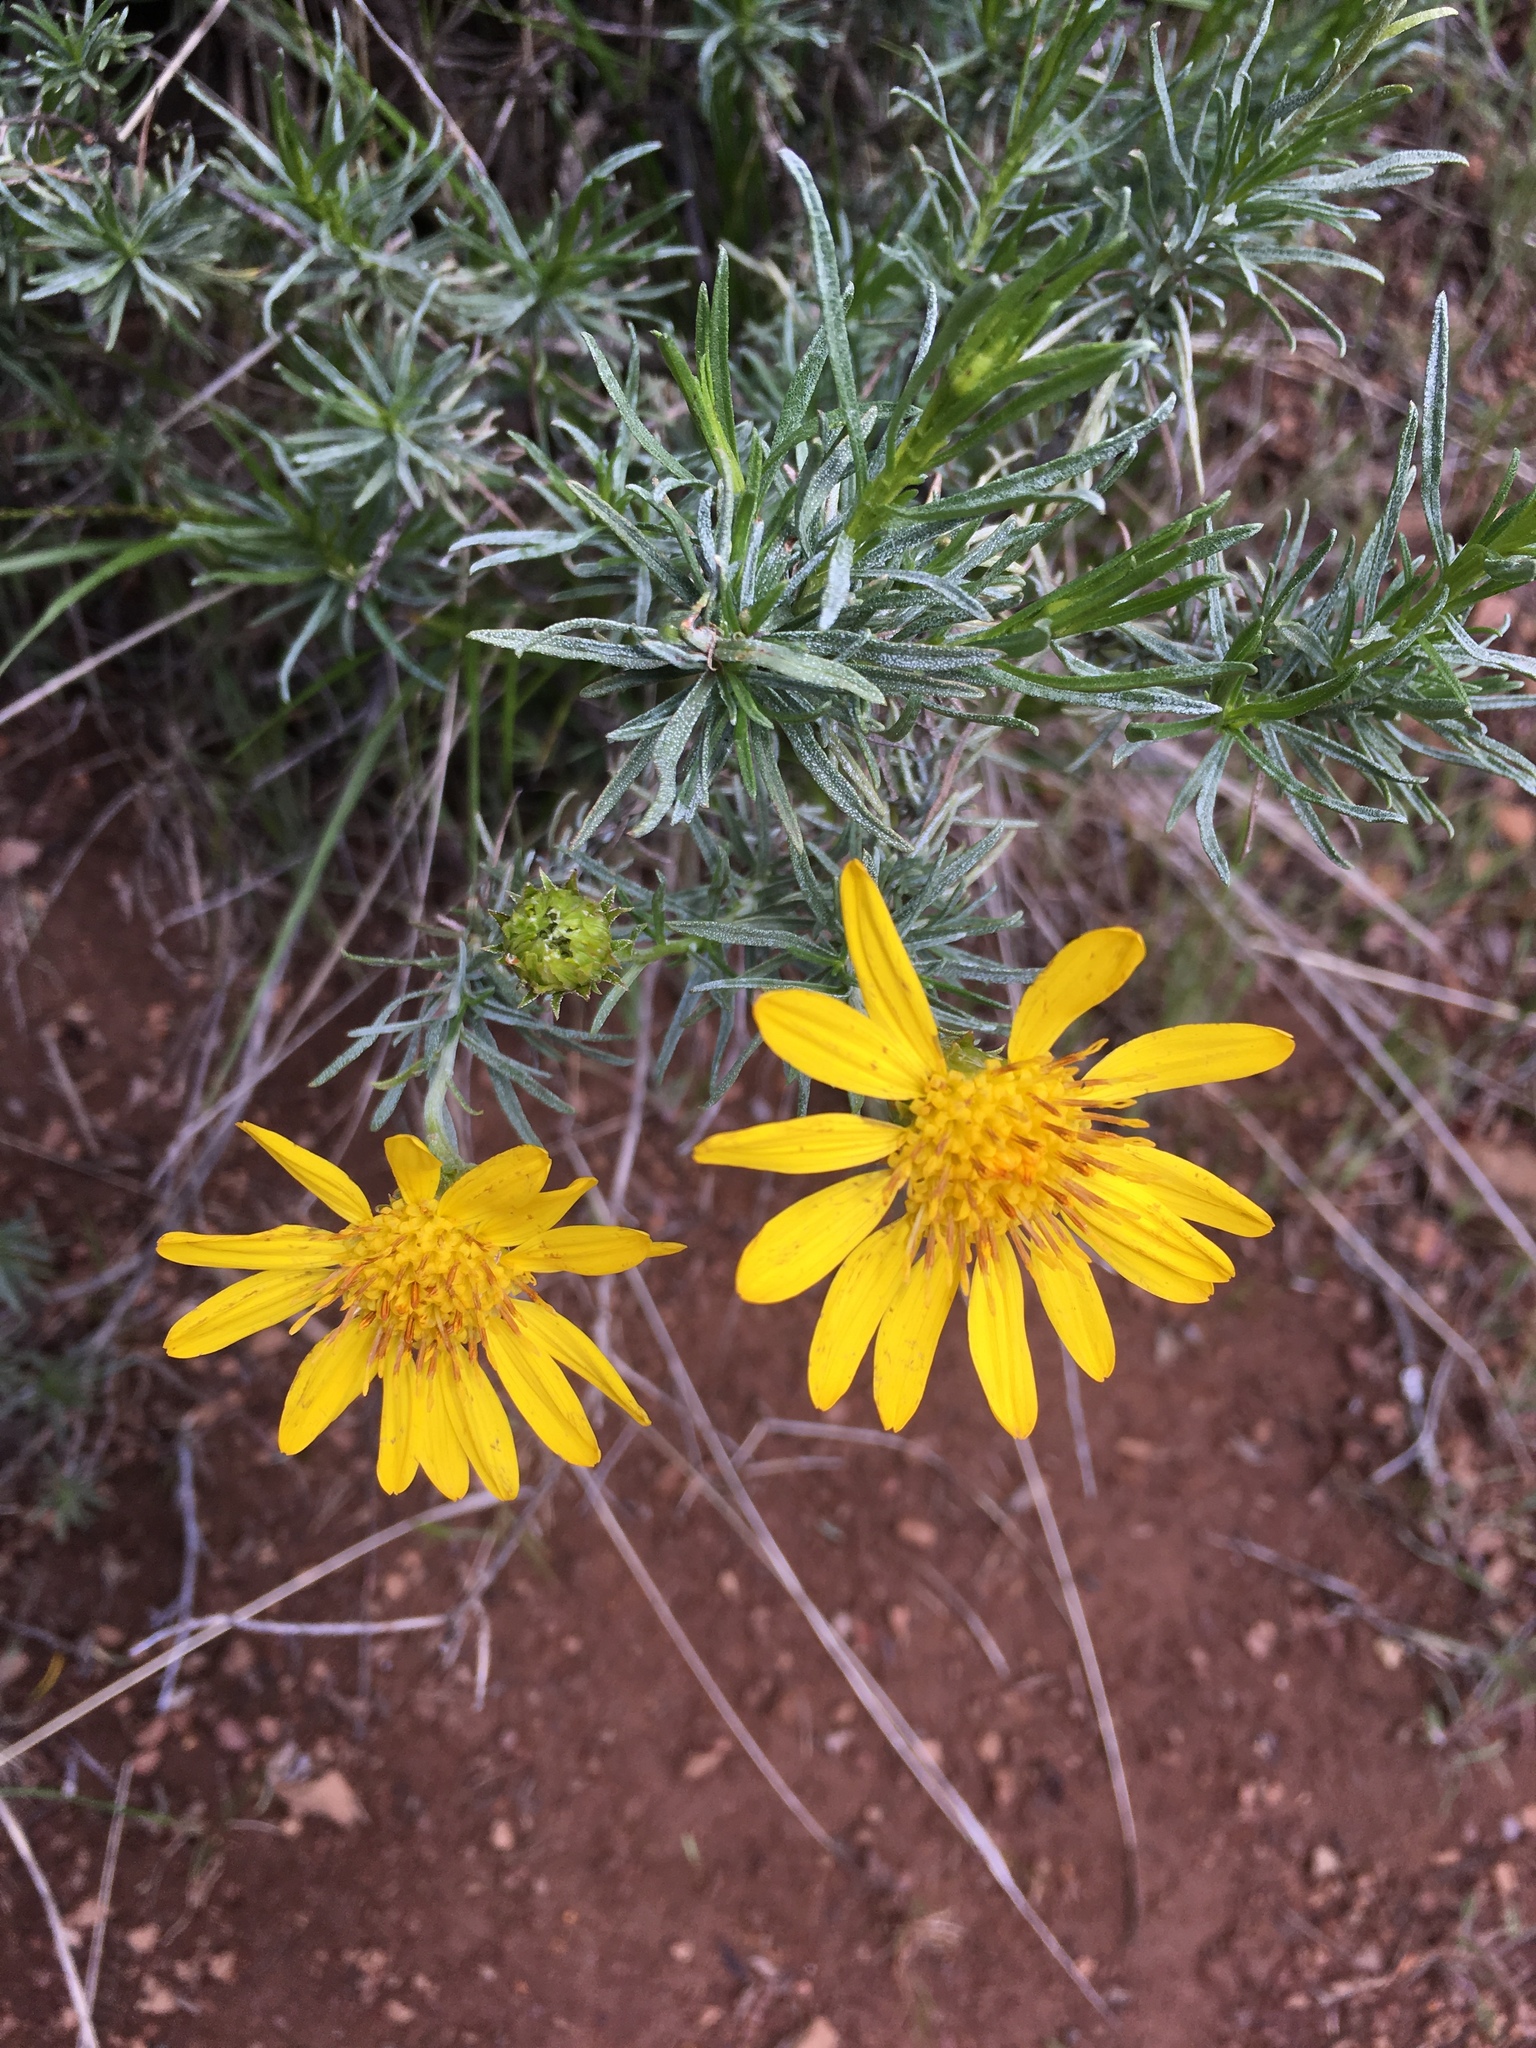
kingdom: Plantae
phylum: Tracheophyta
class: Magnoliopsida
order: Asterales
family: Asteraceae
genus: Ericameria
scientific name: Ericameria linearifolia
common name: Interior goldenbush
